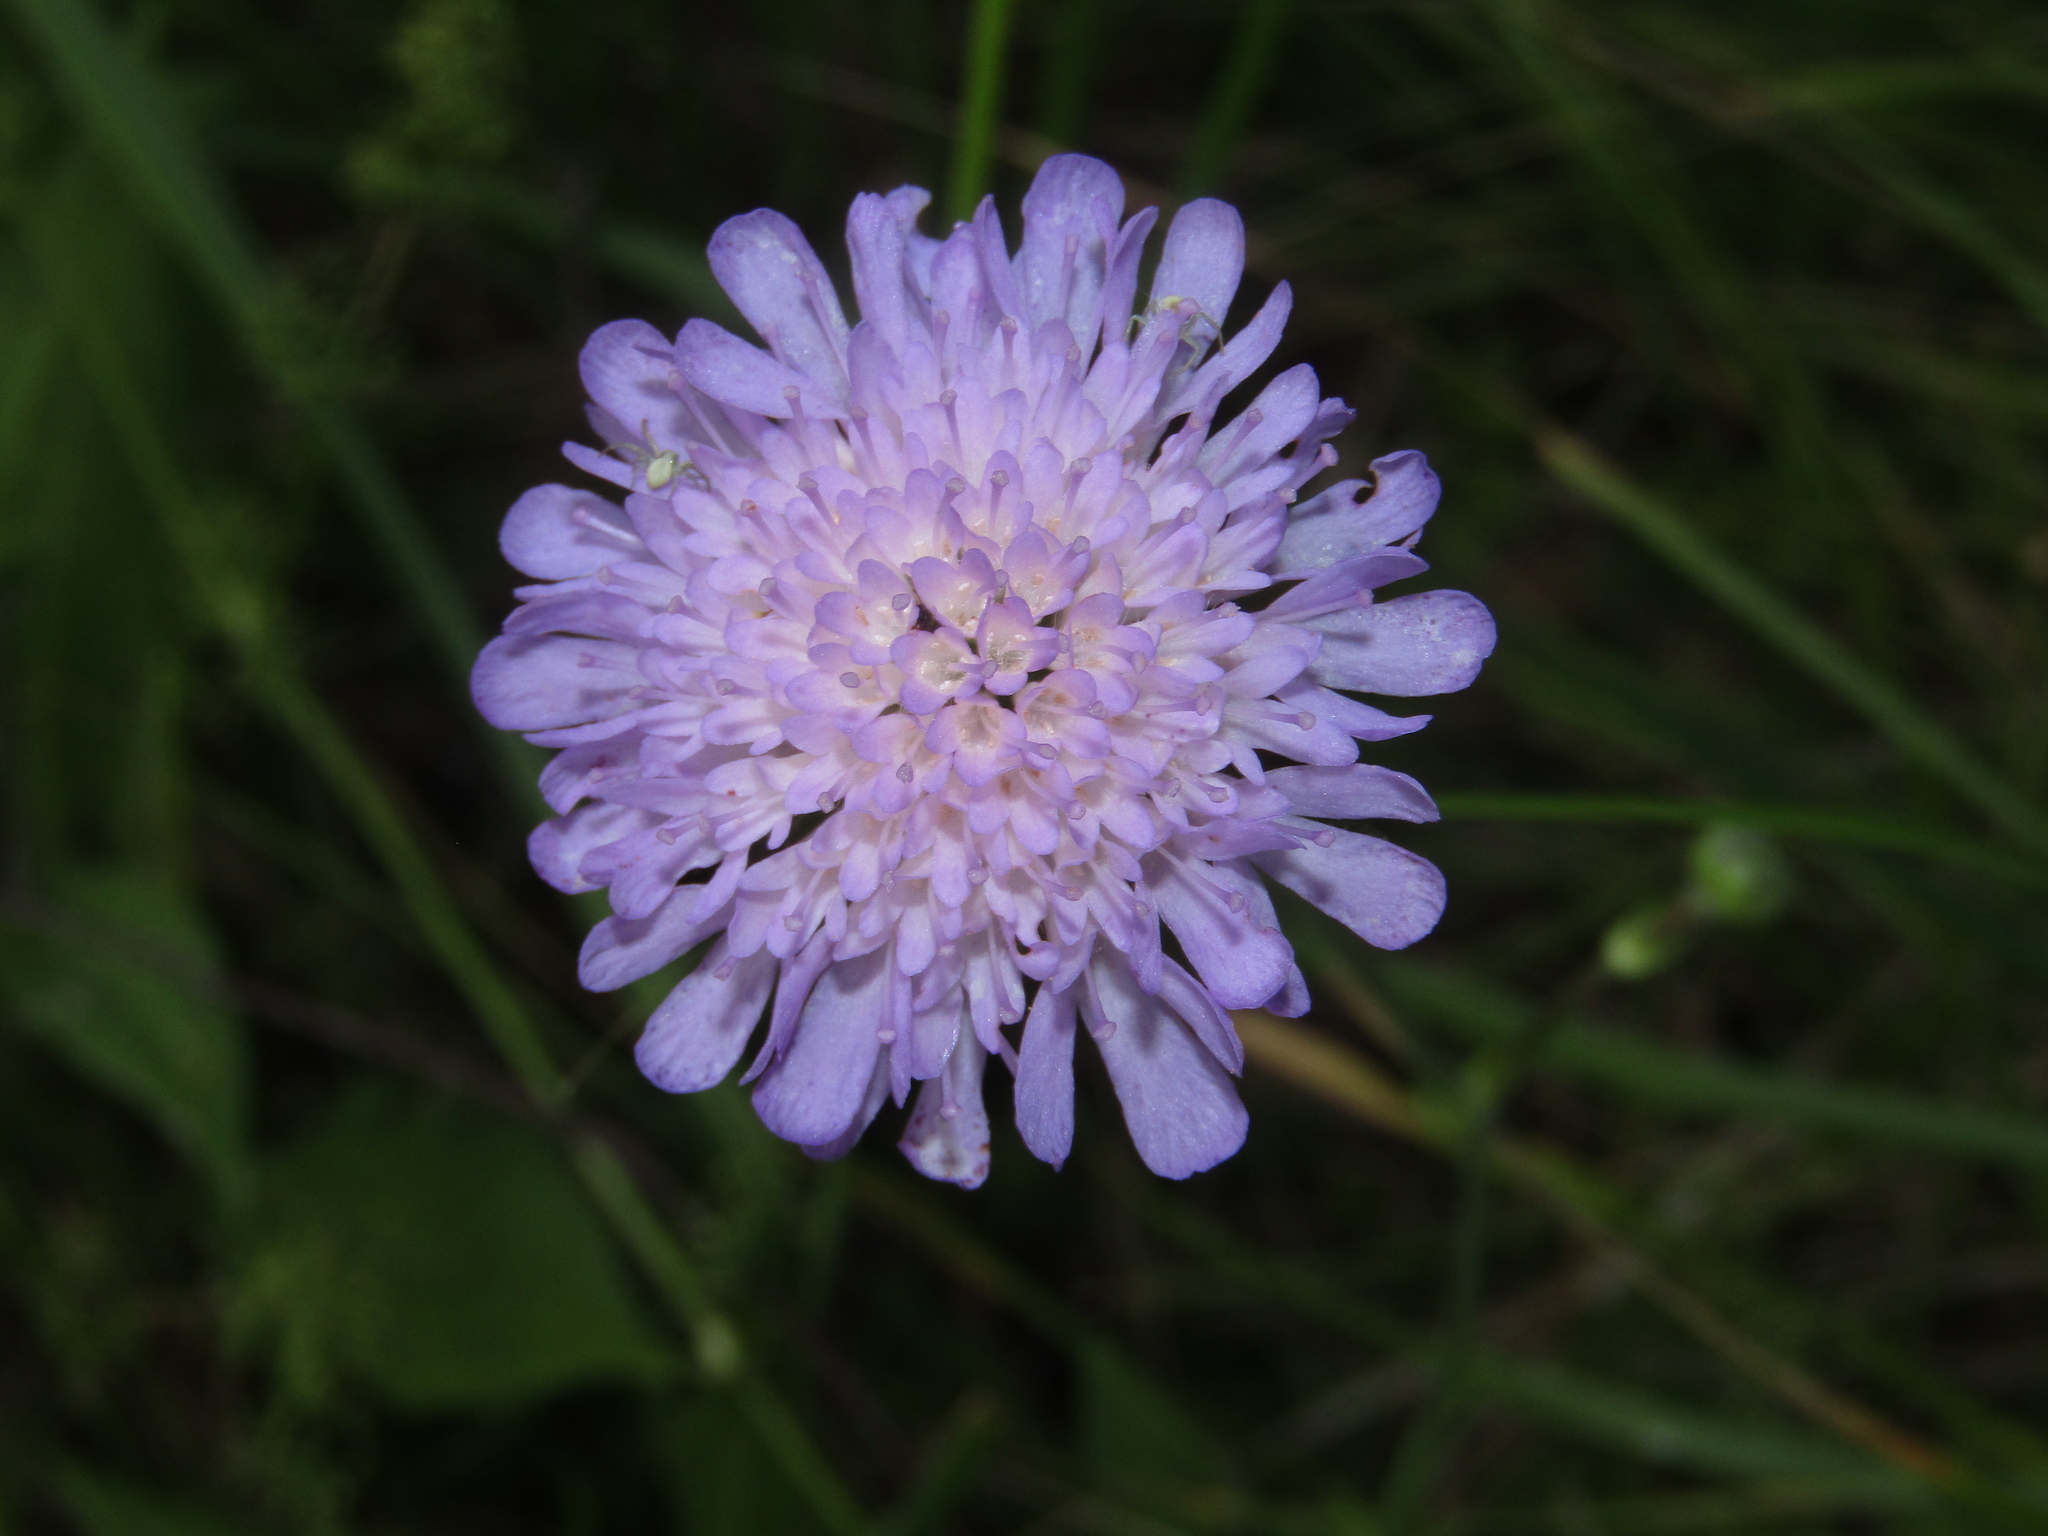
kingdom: Plantae
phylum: Tracheophyta
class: Magnoliopsida
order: Dipsacales
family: Caprifoliaceae
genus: Knautia
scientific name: Knautia arvensis
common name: Field scabiosa
